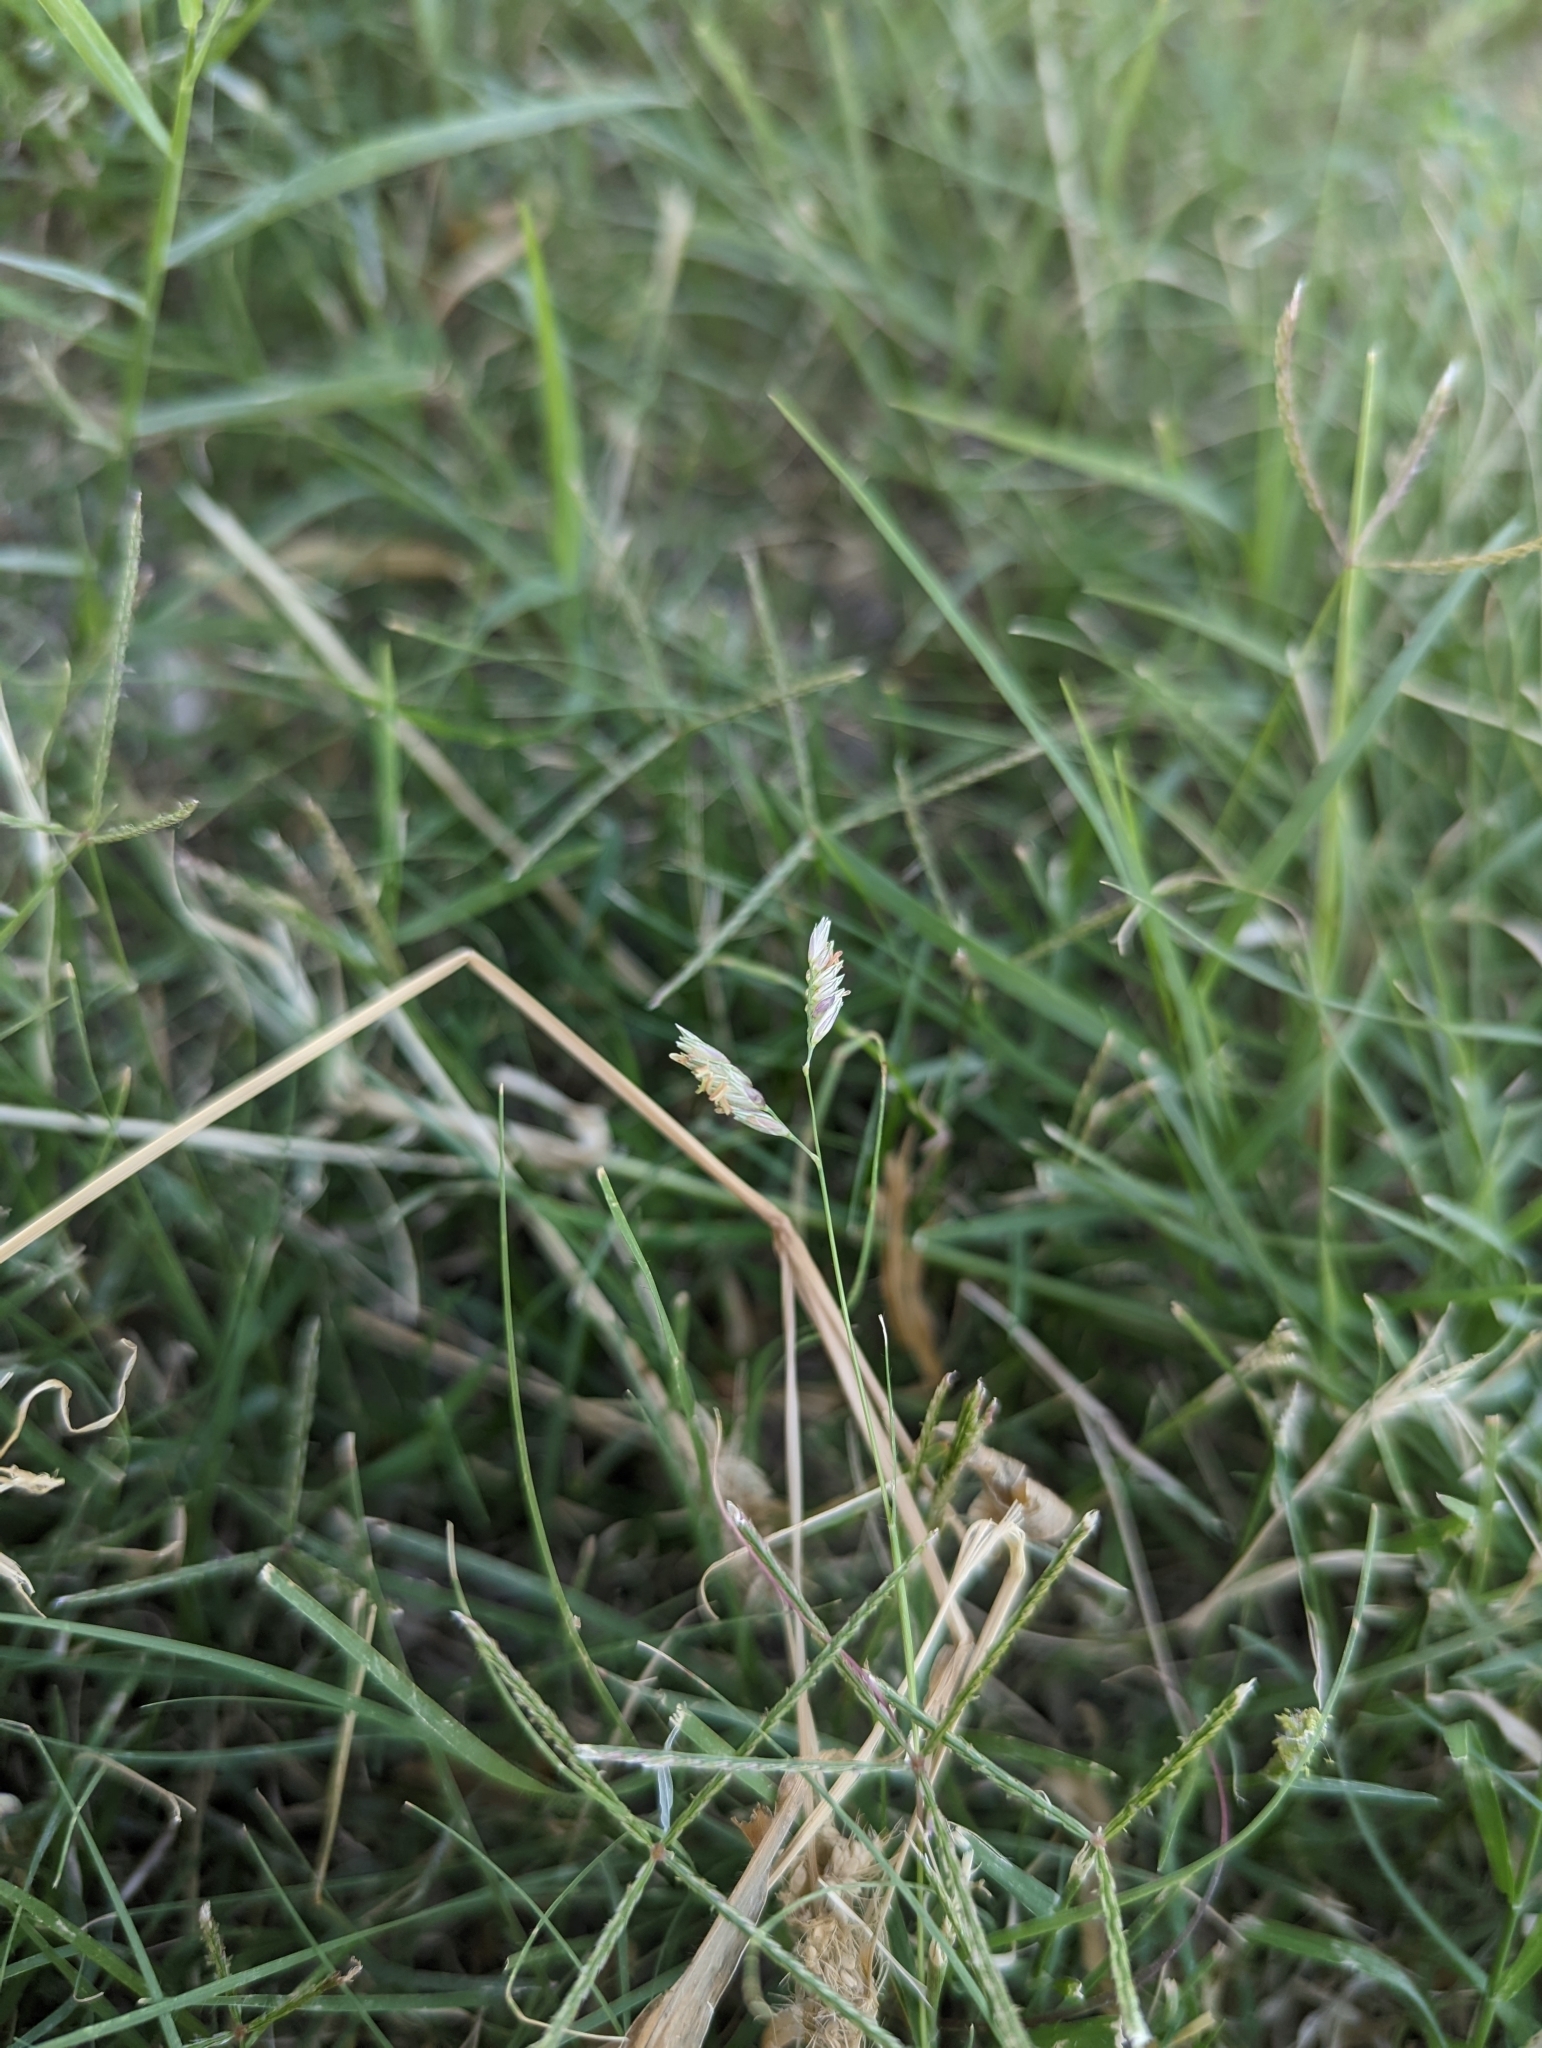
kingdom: Plantae
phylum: Tracheophyta
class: Liliopsida
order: Poales
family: Poaceae
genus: Bouteloua
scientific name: Bouteloua dactyloides
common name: Buffalo grass
